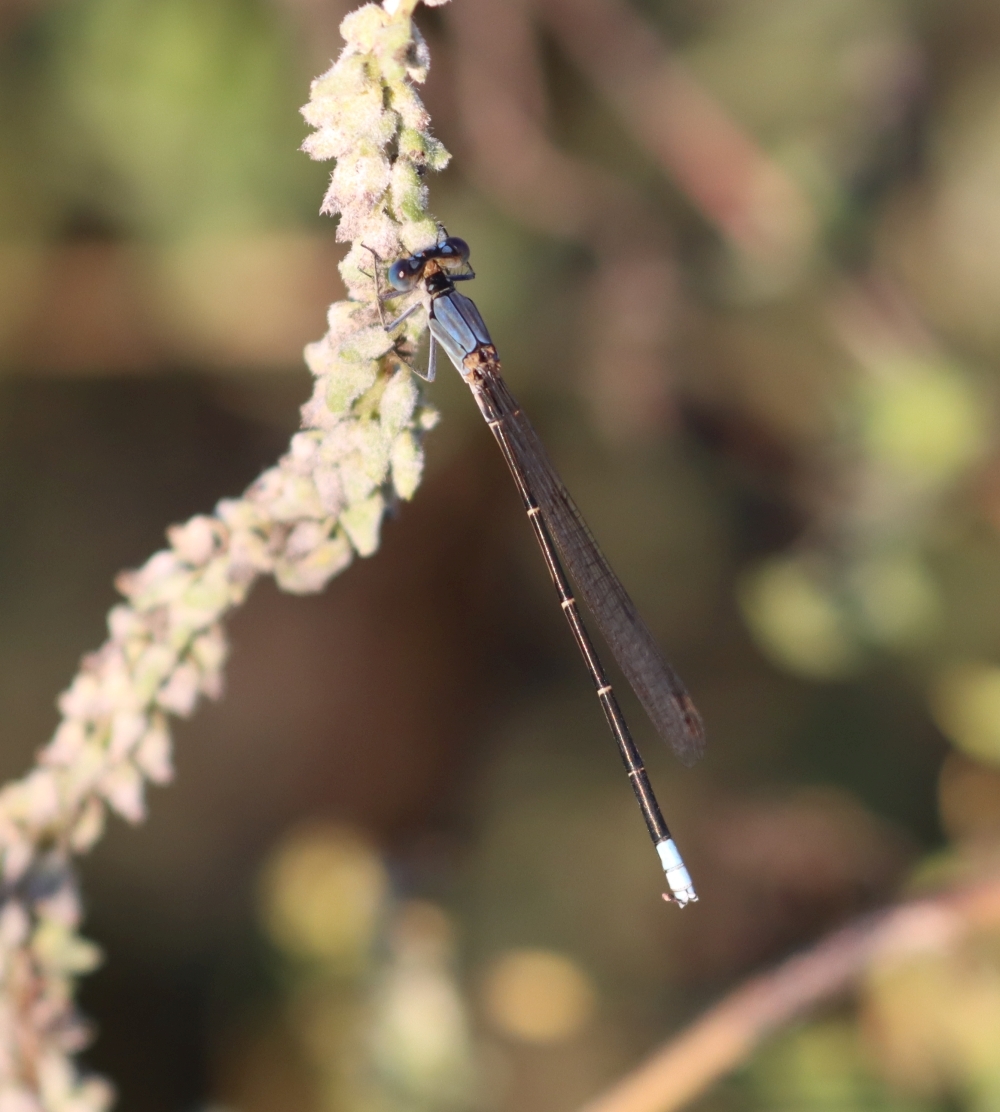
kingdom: Animalia
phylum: Arthropoda
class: Insecta
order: Odonata
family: Coenagrionidae
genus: Argia
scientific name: Argia apicalis
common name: Blue-fronted dancer
